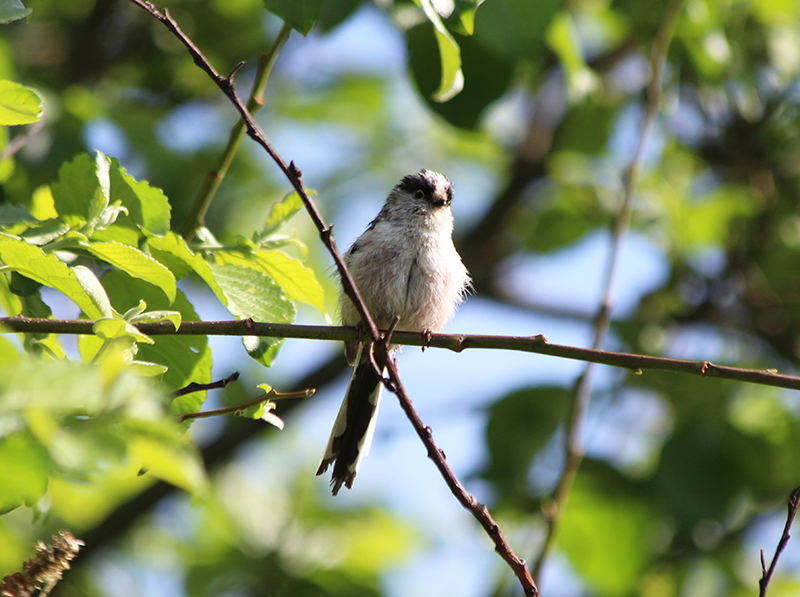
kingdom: Animalia
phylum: Chordata
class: Aves
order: Passeriformes
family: Aegithalidae
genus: Aegithalos
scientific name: Aegithalos caudatus
